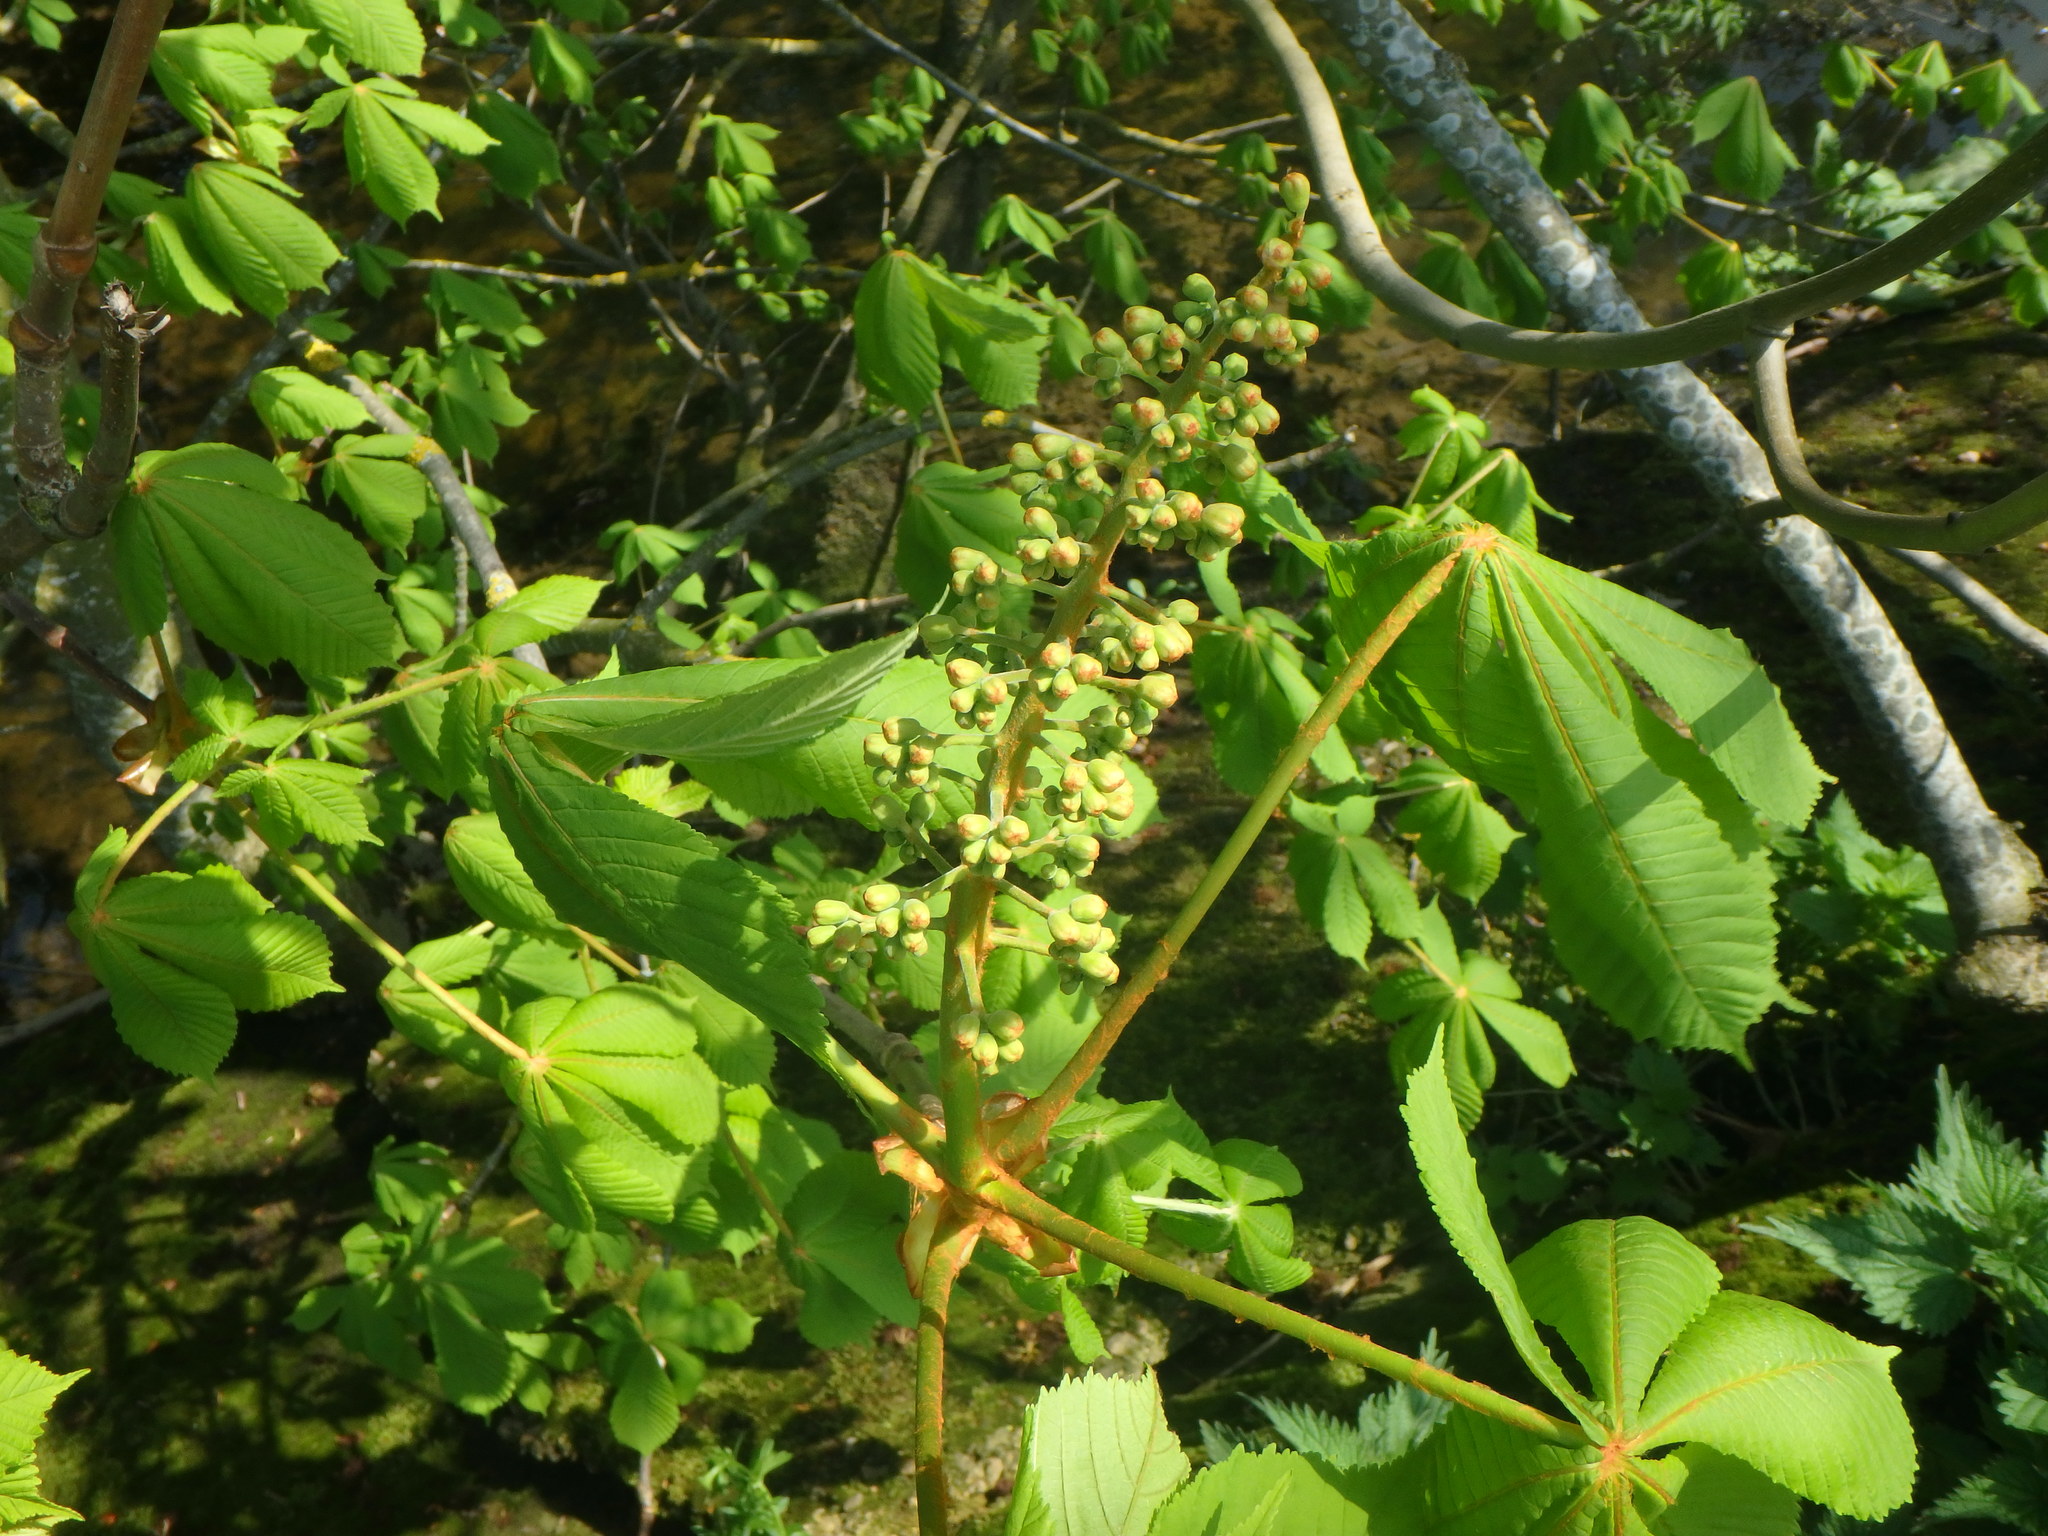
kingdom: Plantae
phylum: Tracheophyta
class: Magnoliopsida
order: Sapindales
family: Sapindaceae
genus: Aesculus
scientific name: Aesculus hippocastanum
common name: Horse-chestnut
